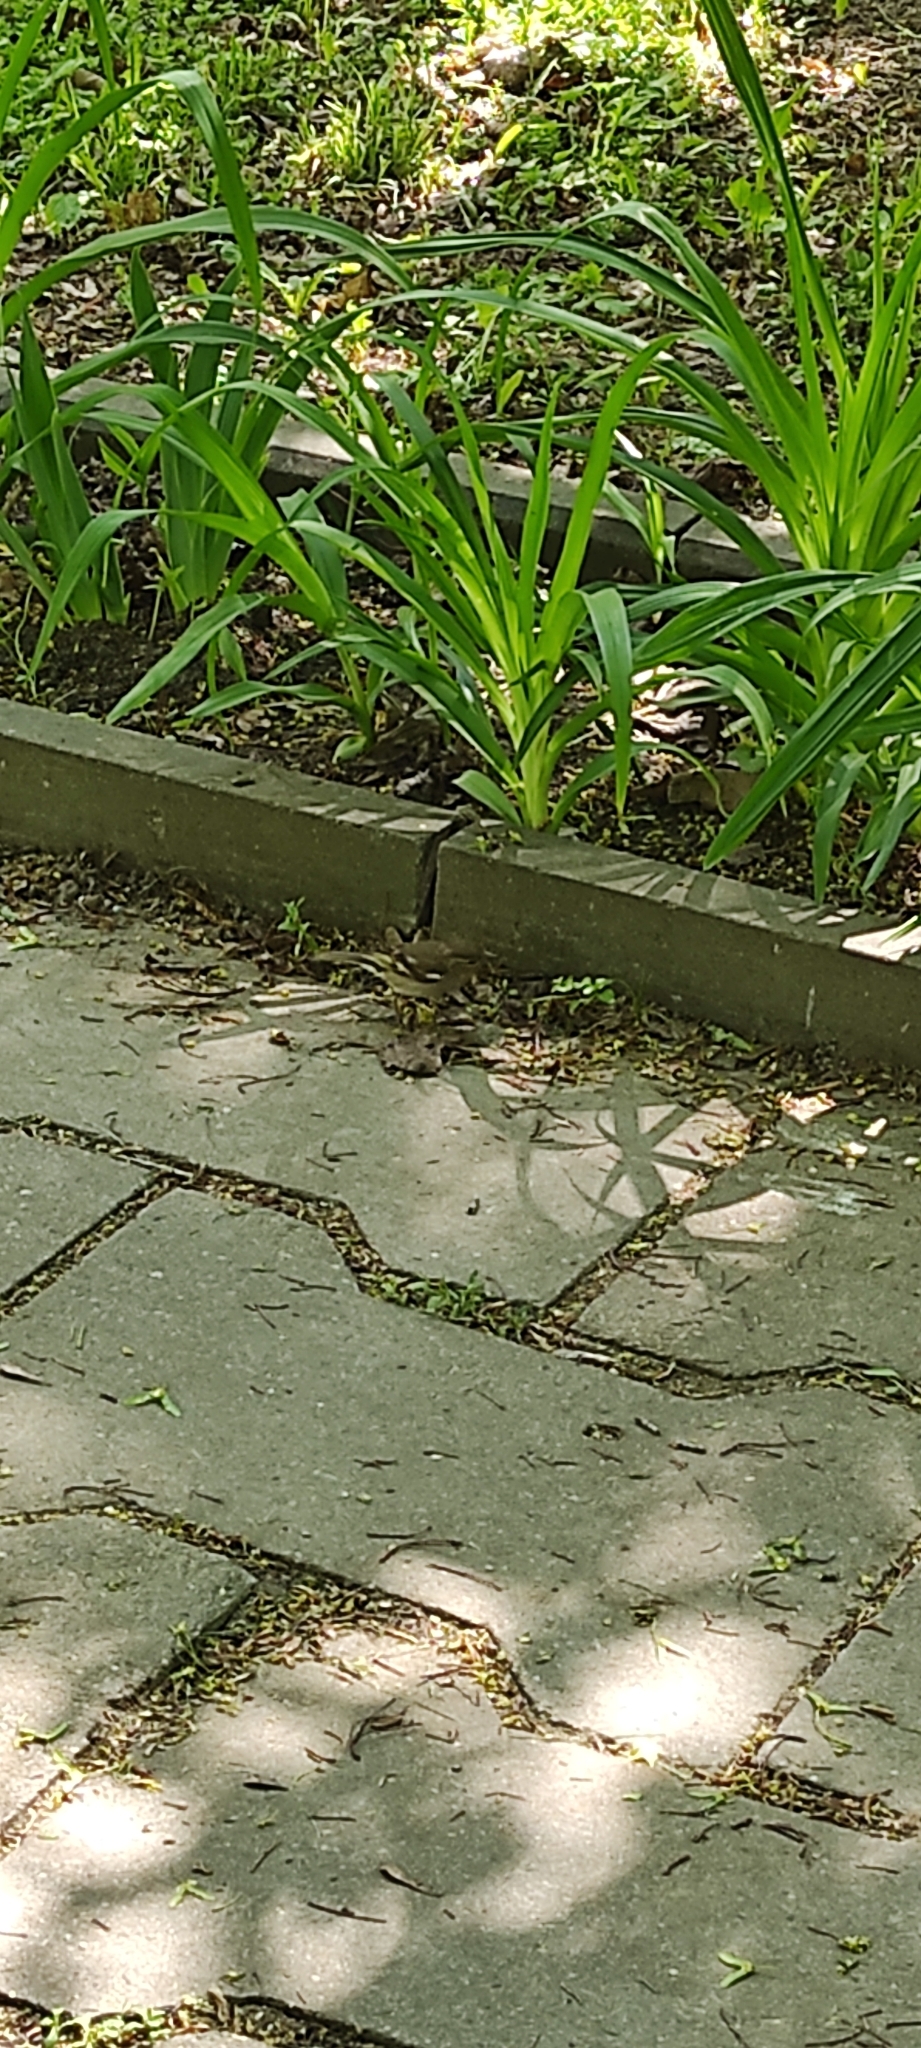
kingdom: Animalia
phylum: Chordata
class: Aves
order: Passeriformes
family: Fringillidae
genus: Fringilla
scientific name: Fringilla coelebs
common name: Common chaffinch
